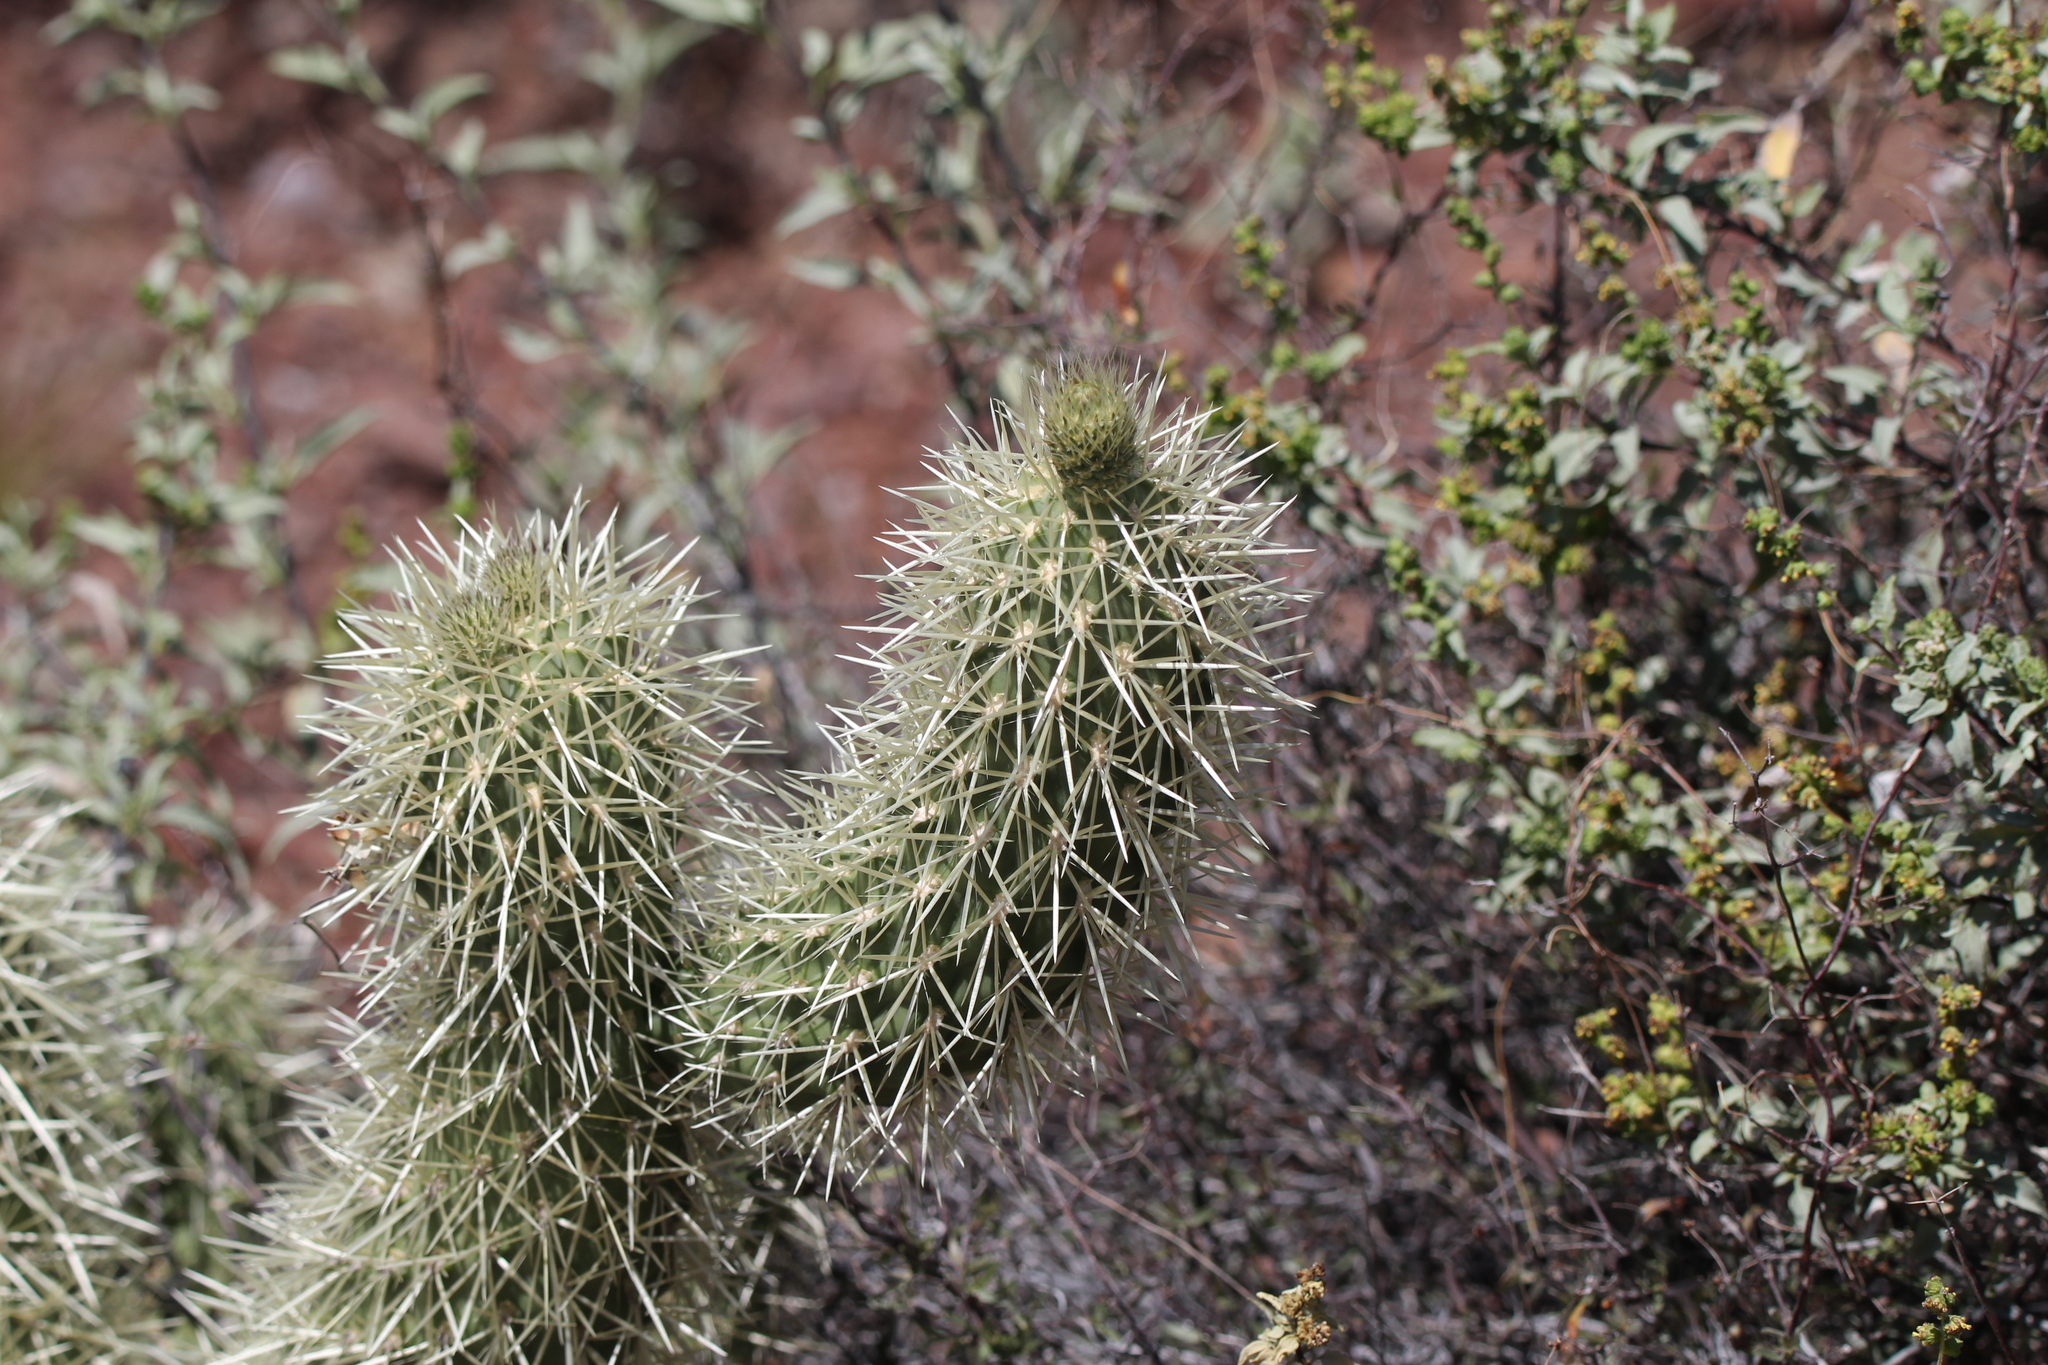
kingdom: Plantae
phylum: Tracheophyta
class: Magnoliopsida
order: Caryophyllales
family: Cactaceae
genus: Cylindropuntia
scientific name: Cylindropuntia fosbergii
